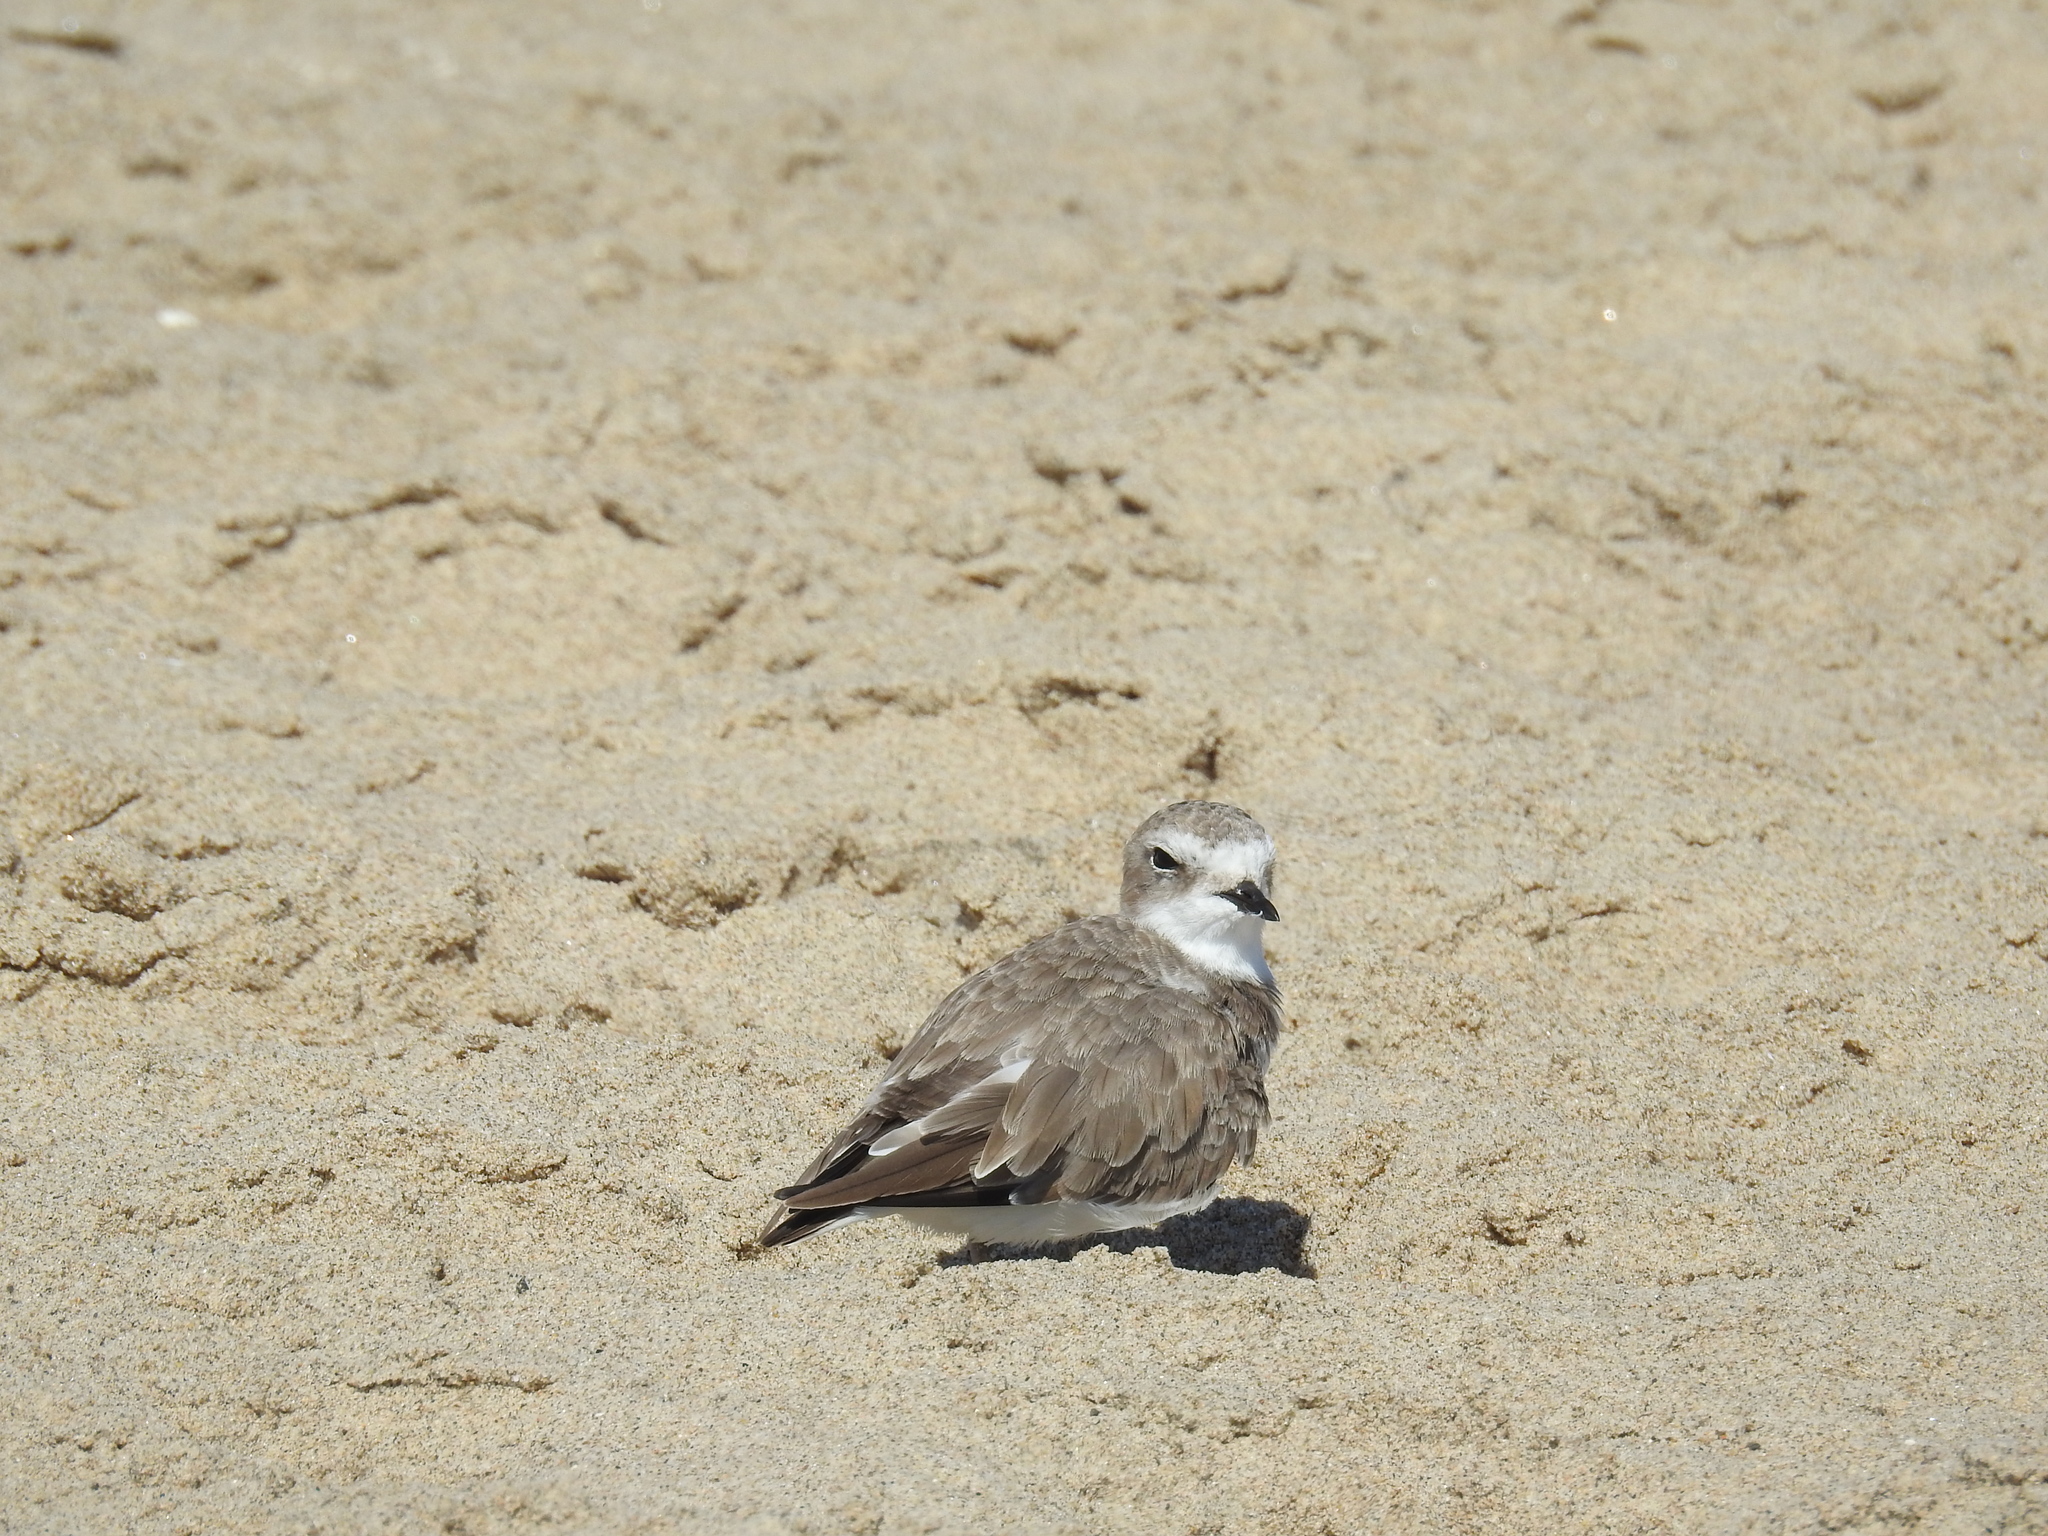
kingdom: Animalia
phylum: Chordata
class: Aves
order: Charadriiformes
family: Charadriidae
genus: Anarhynchus
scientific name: Anarhynchus
